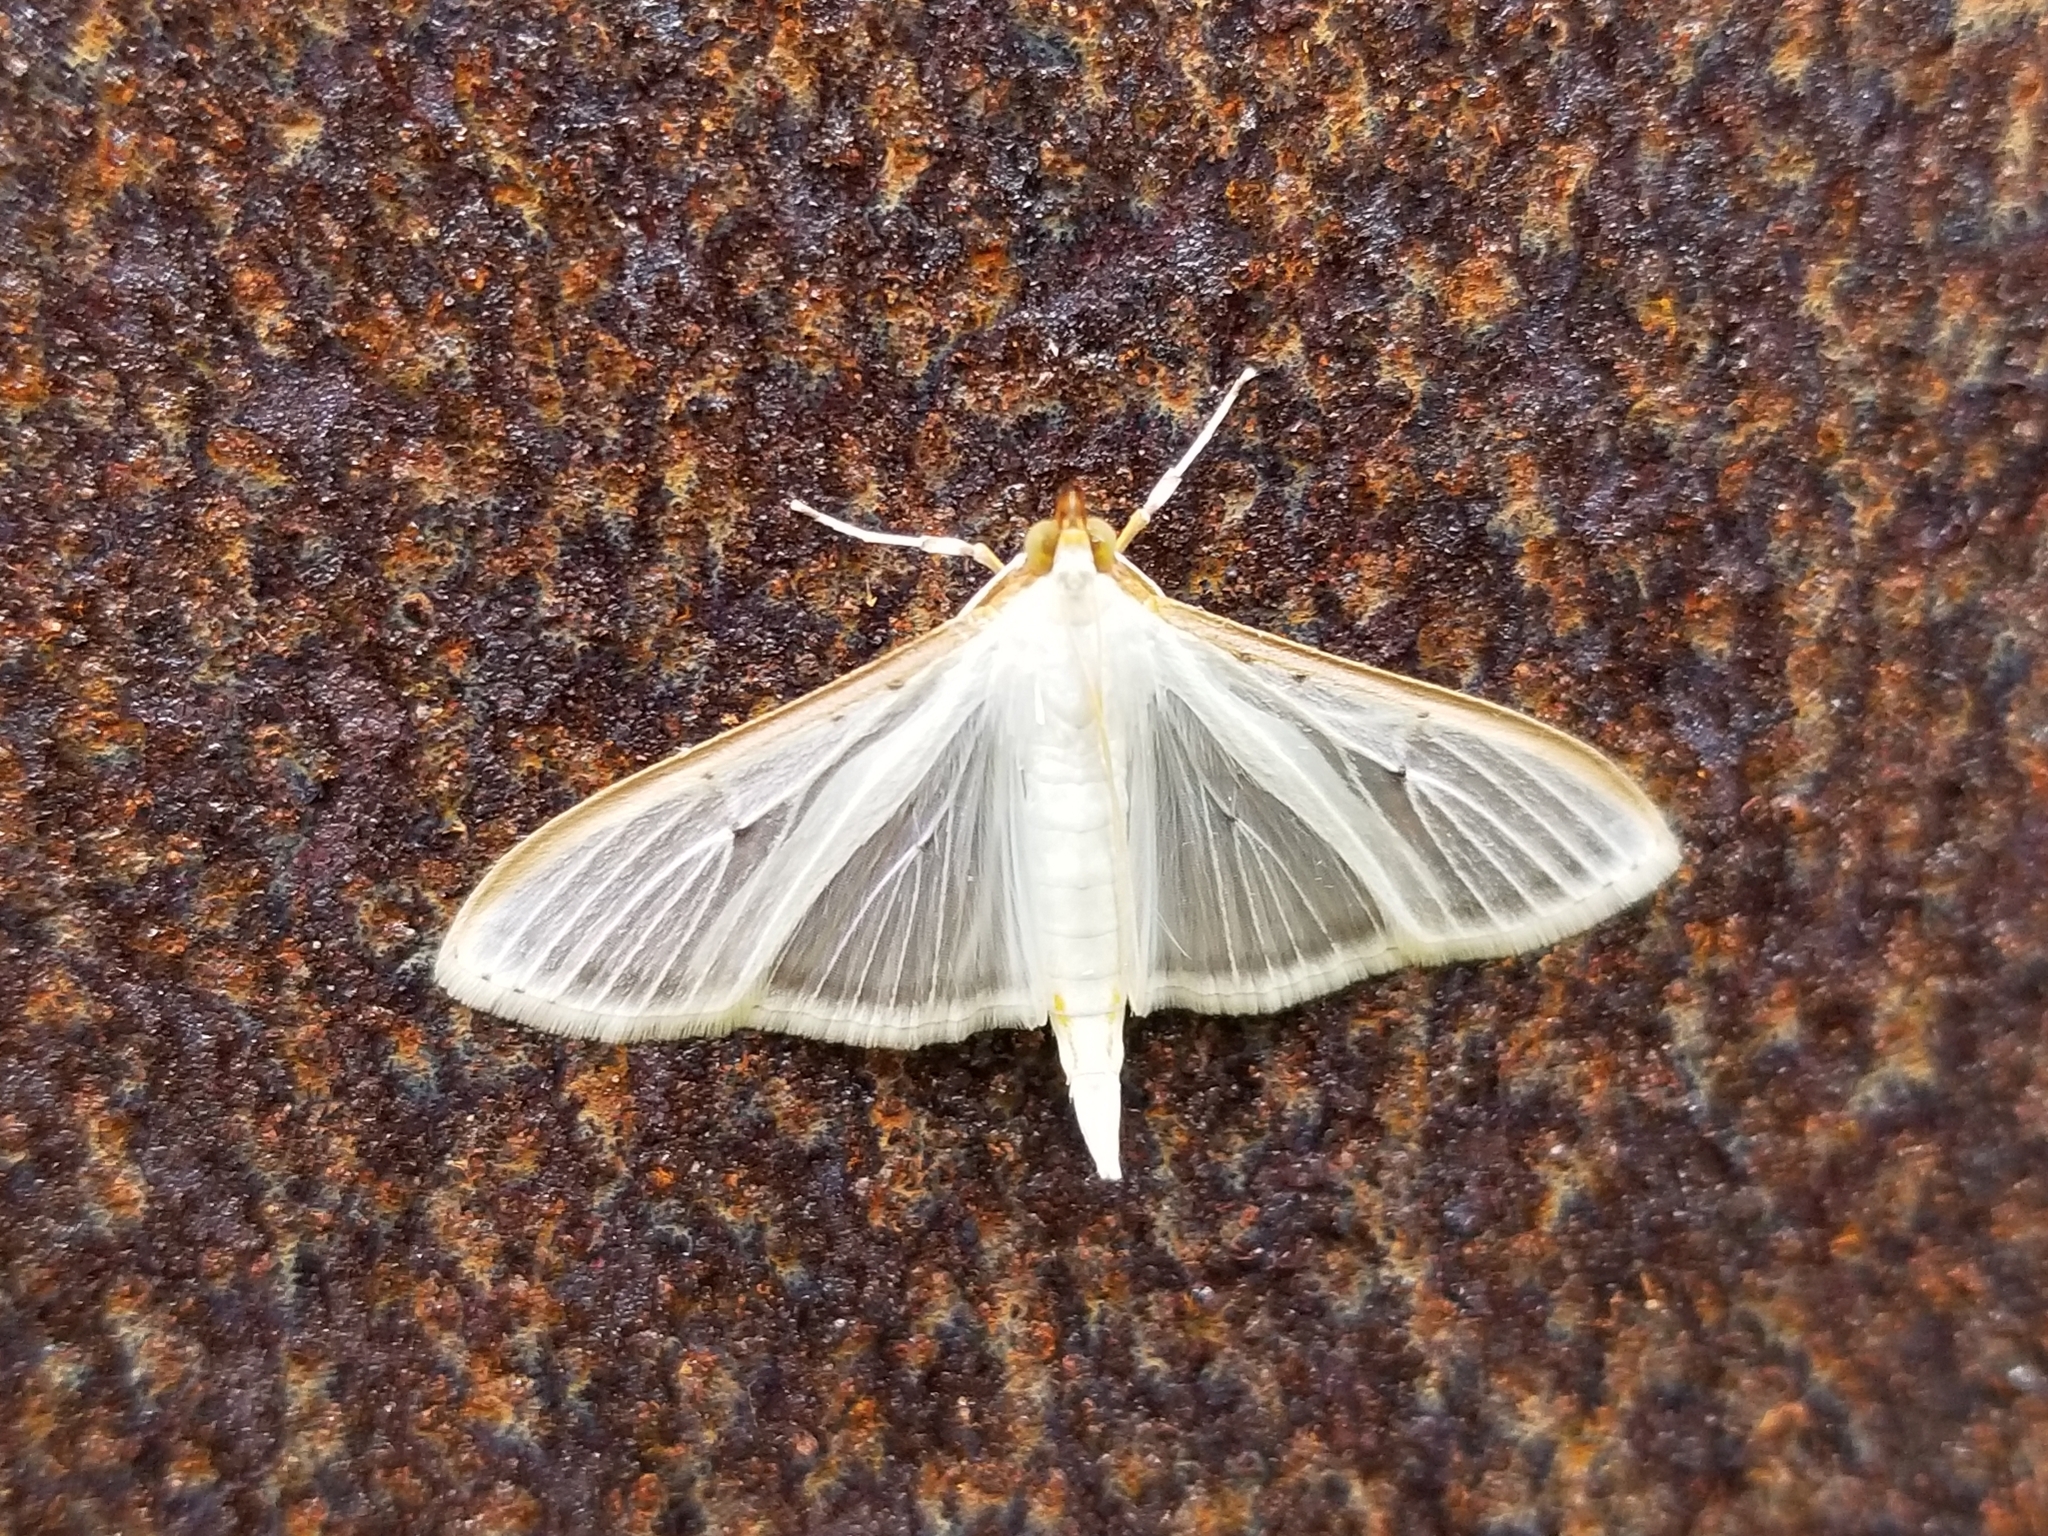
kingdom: Animalia
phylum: Arthropoda
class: Insecta
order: Lepidoptera
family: Crambidae
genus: Palpita
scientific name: Palpita quadristigmalis
